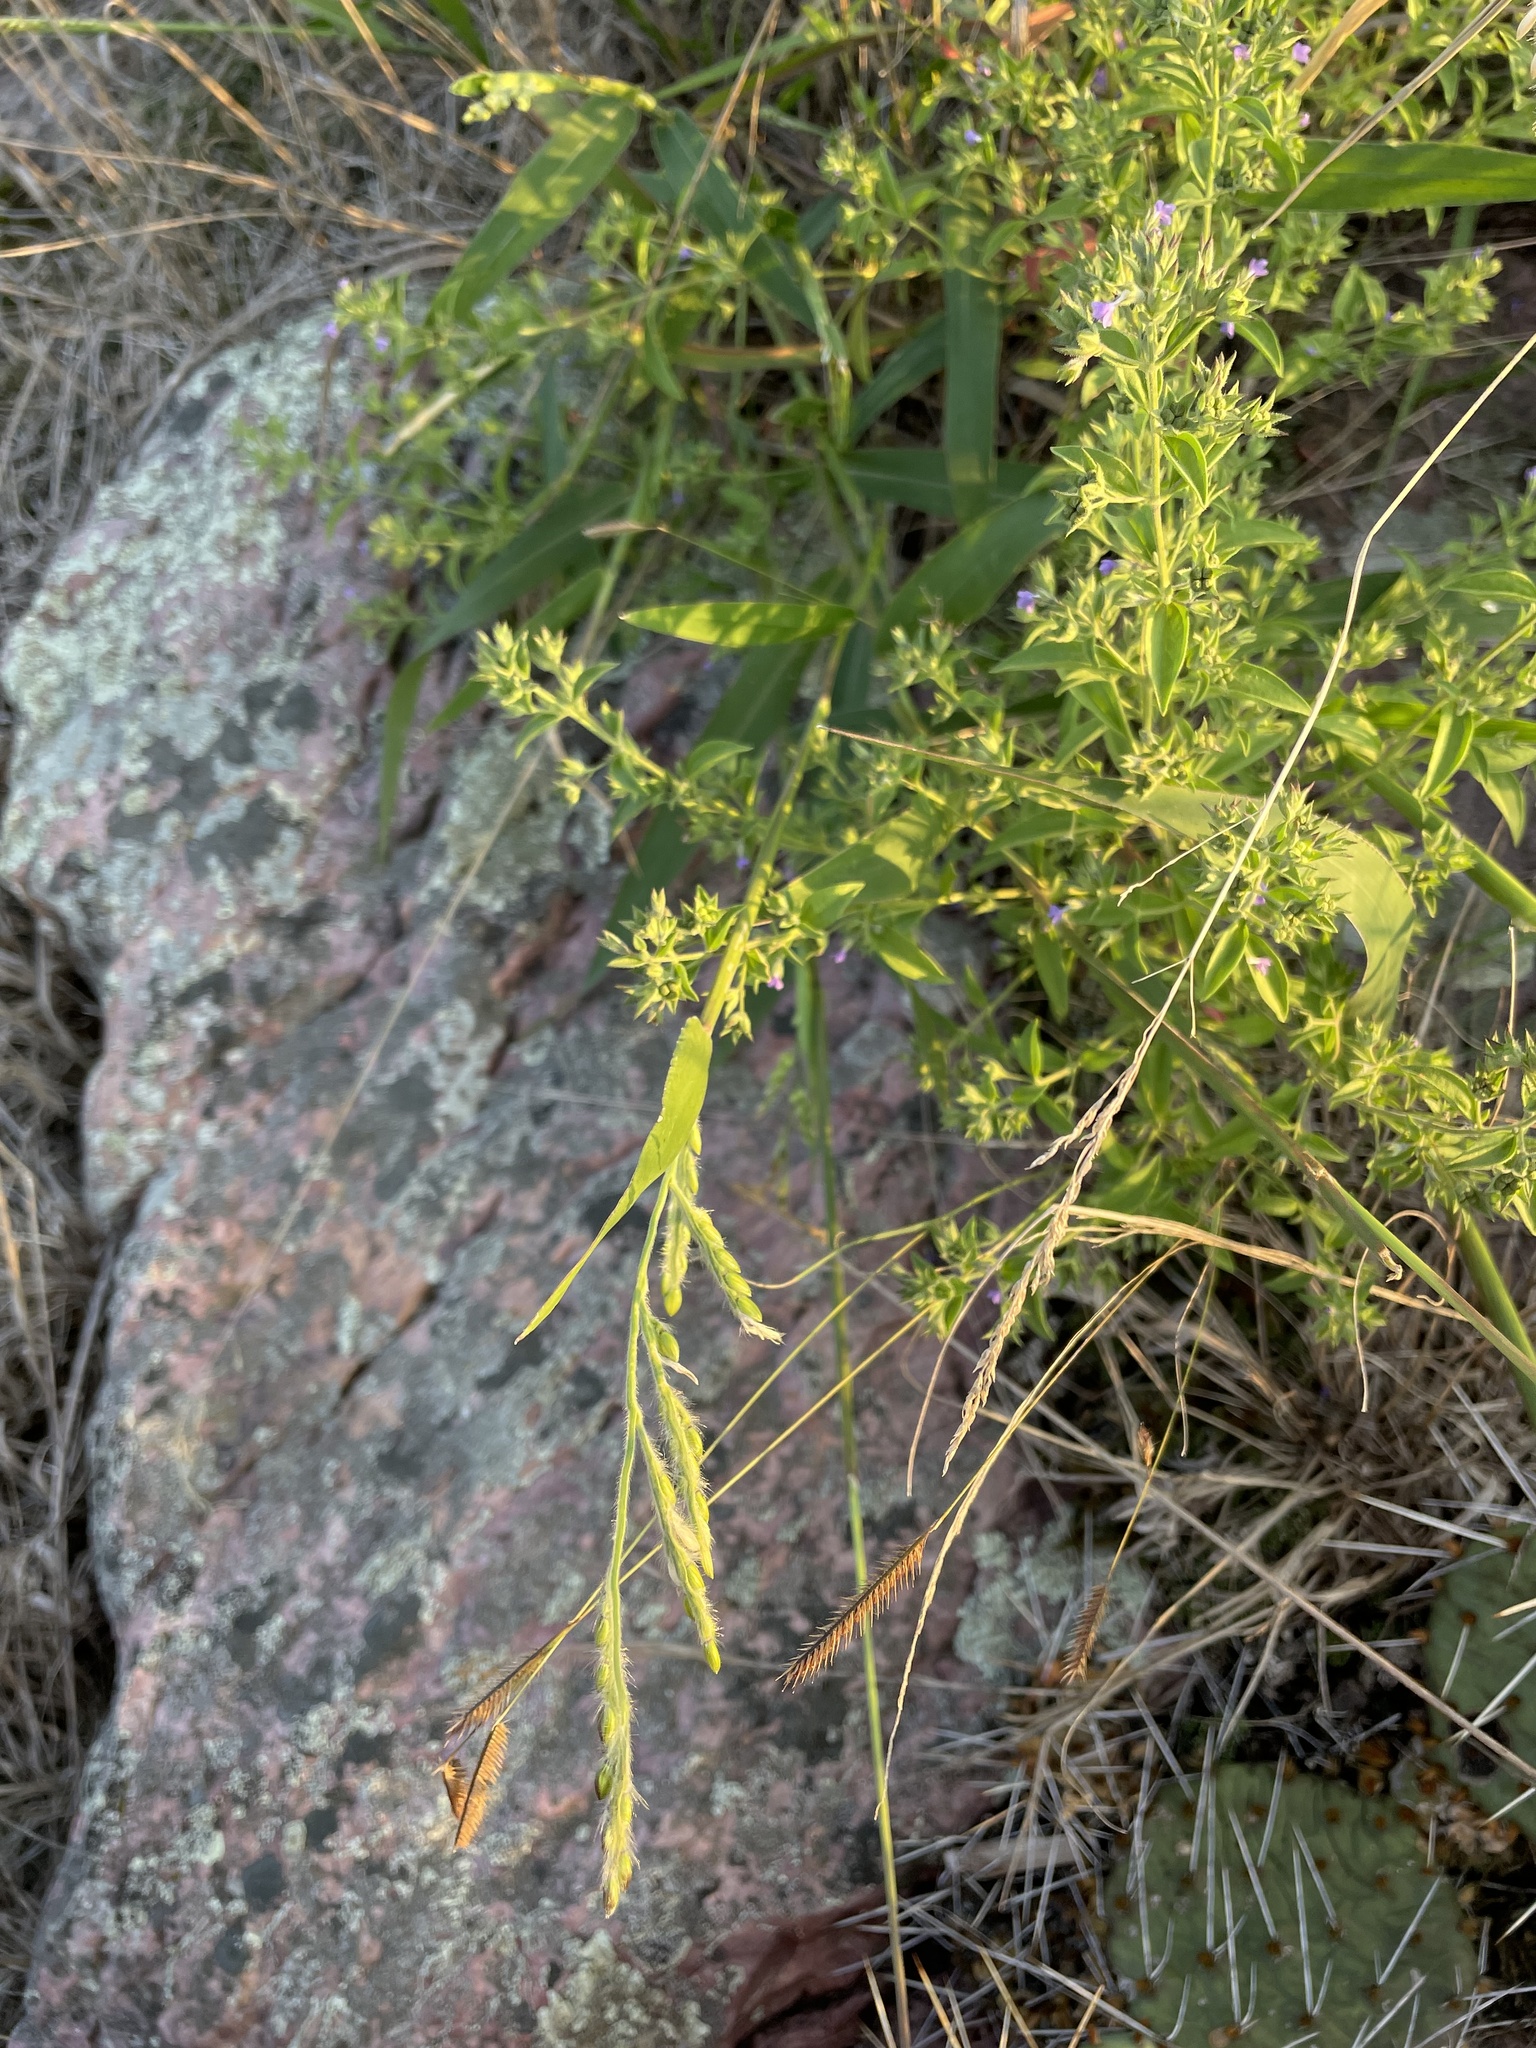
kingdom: Plantae
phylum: Tracheophyta
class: Liliopsida
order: Poales
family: Poaceae
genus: Eriochloa
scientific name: Eriochloa villosa
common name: Hairy cupgrass
